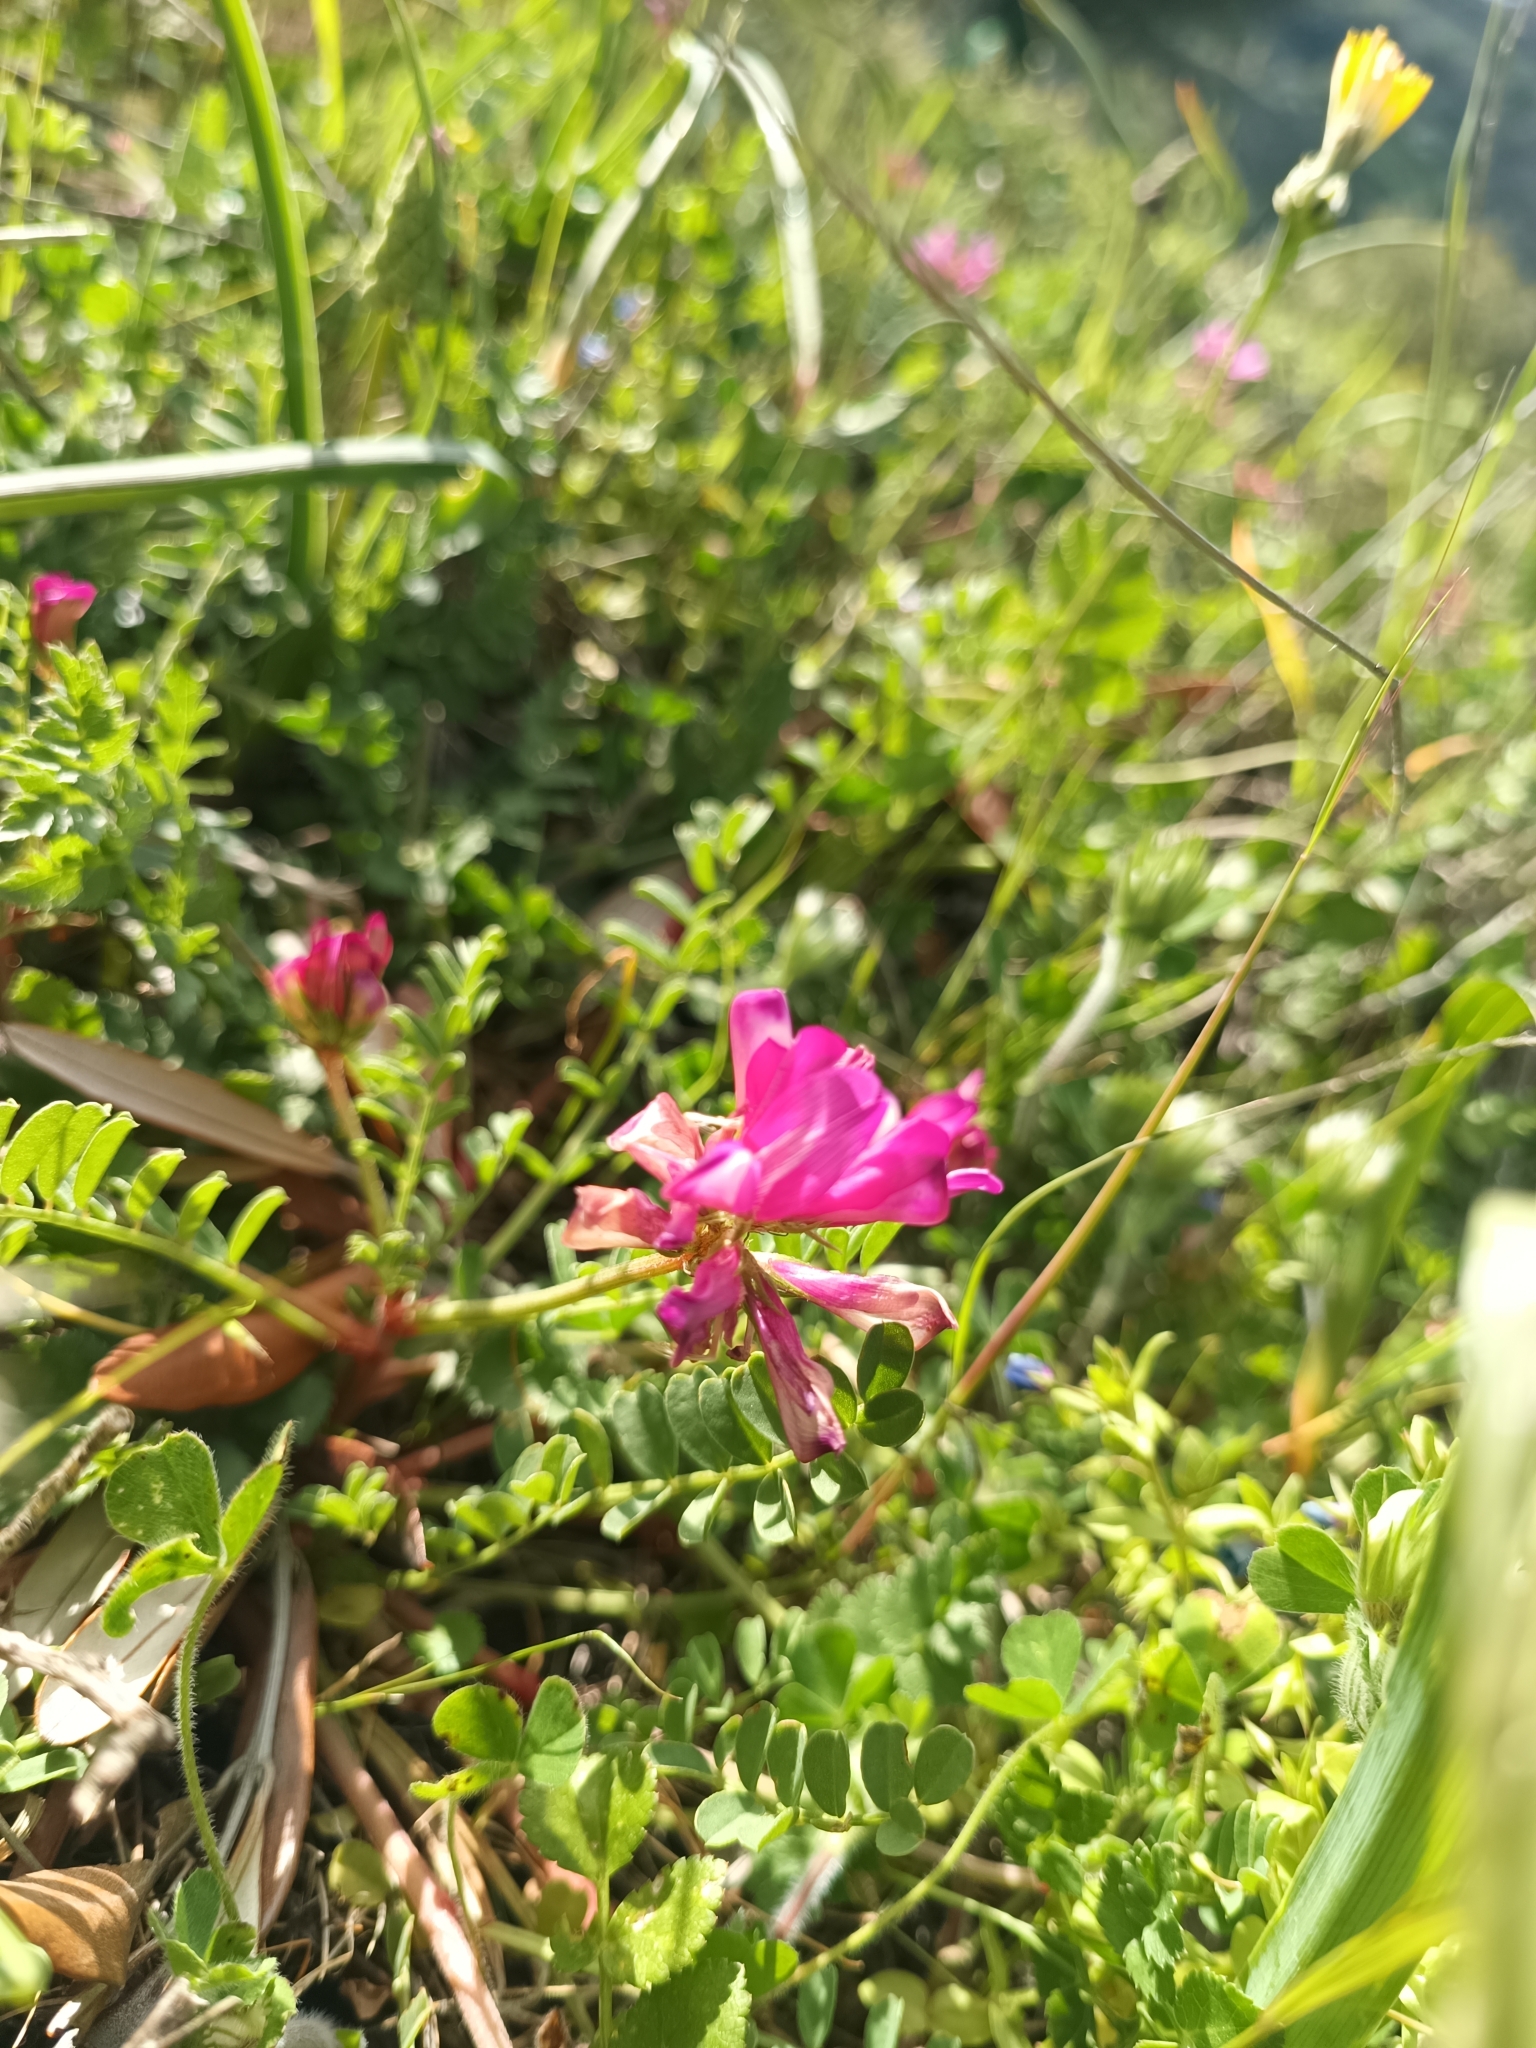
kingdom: Plantae
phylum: Tracheophyta
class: Magnoliopsida
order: Fabales
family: Fabaceae
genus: Sulla
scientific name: Sulla glomerata
